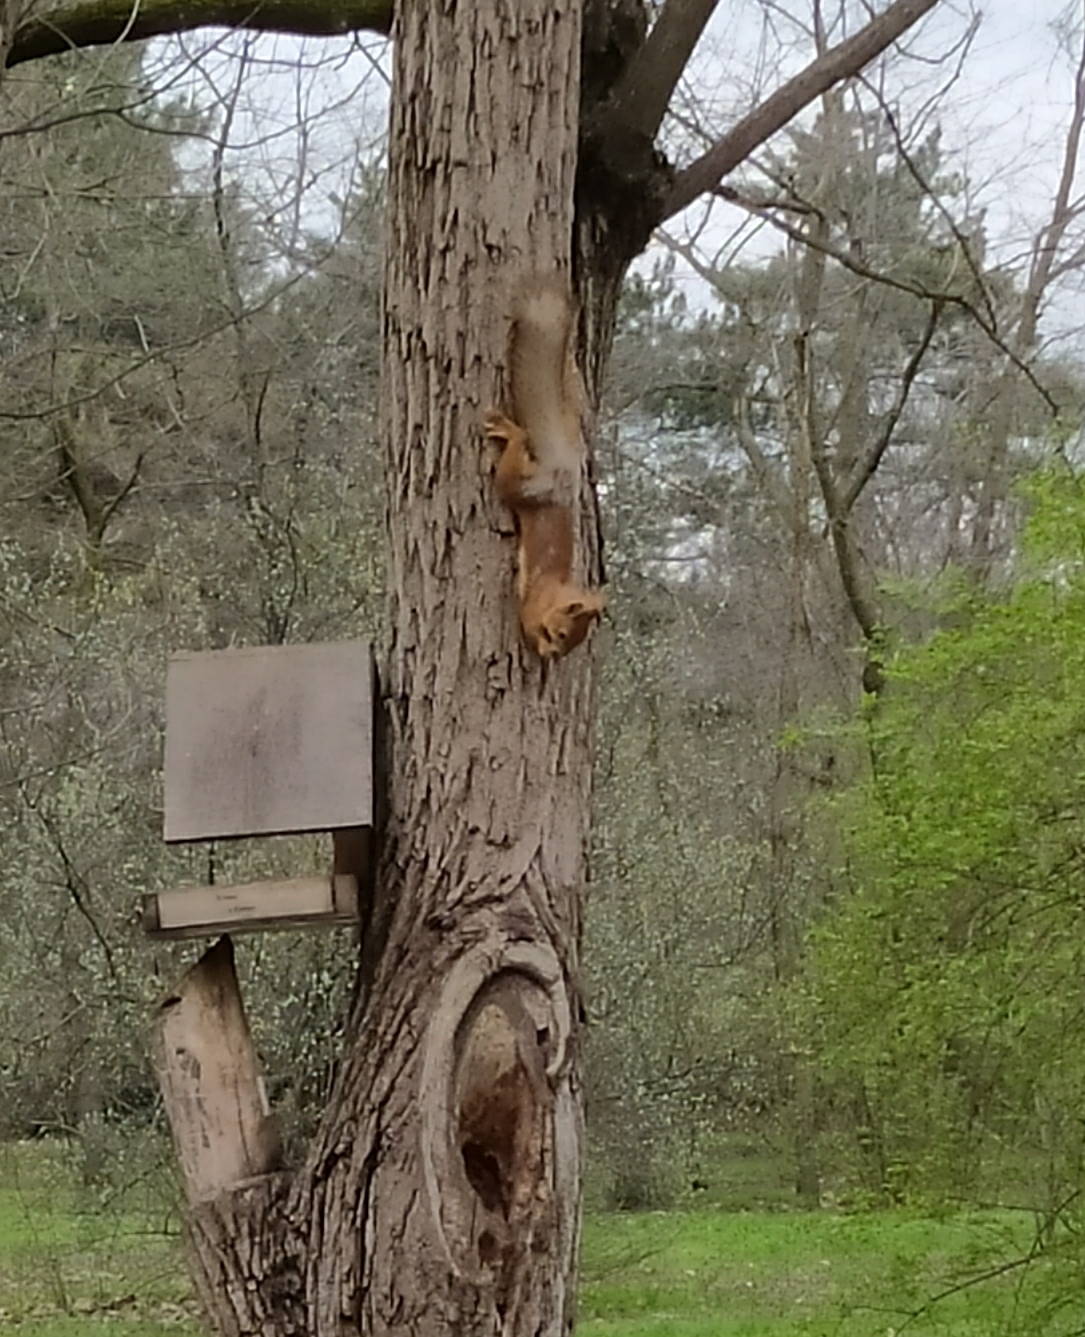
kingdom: Animalia
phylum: Chordata
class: Mammalia
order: Rodentia
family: Sciuridae
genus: Sciurus
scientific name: Sciurus vulgaris
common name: Eurasian red squirrel
